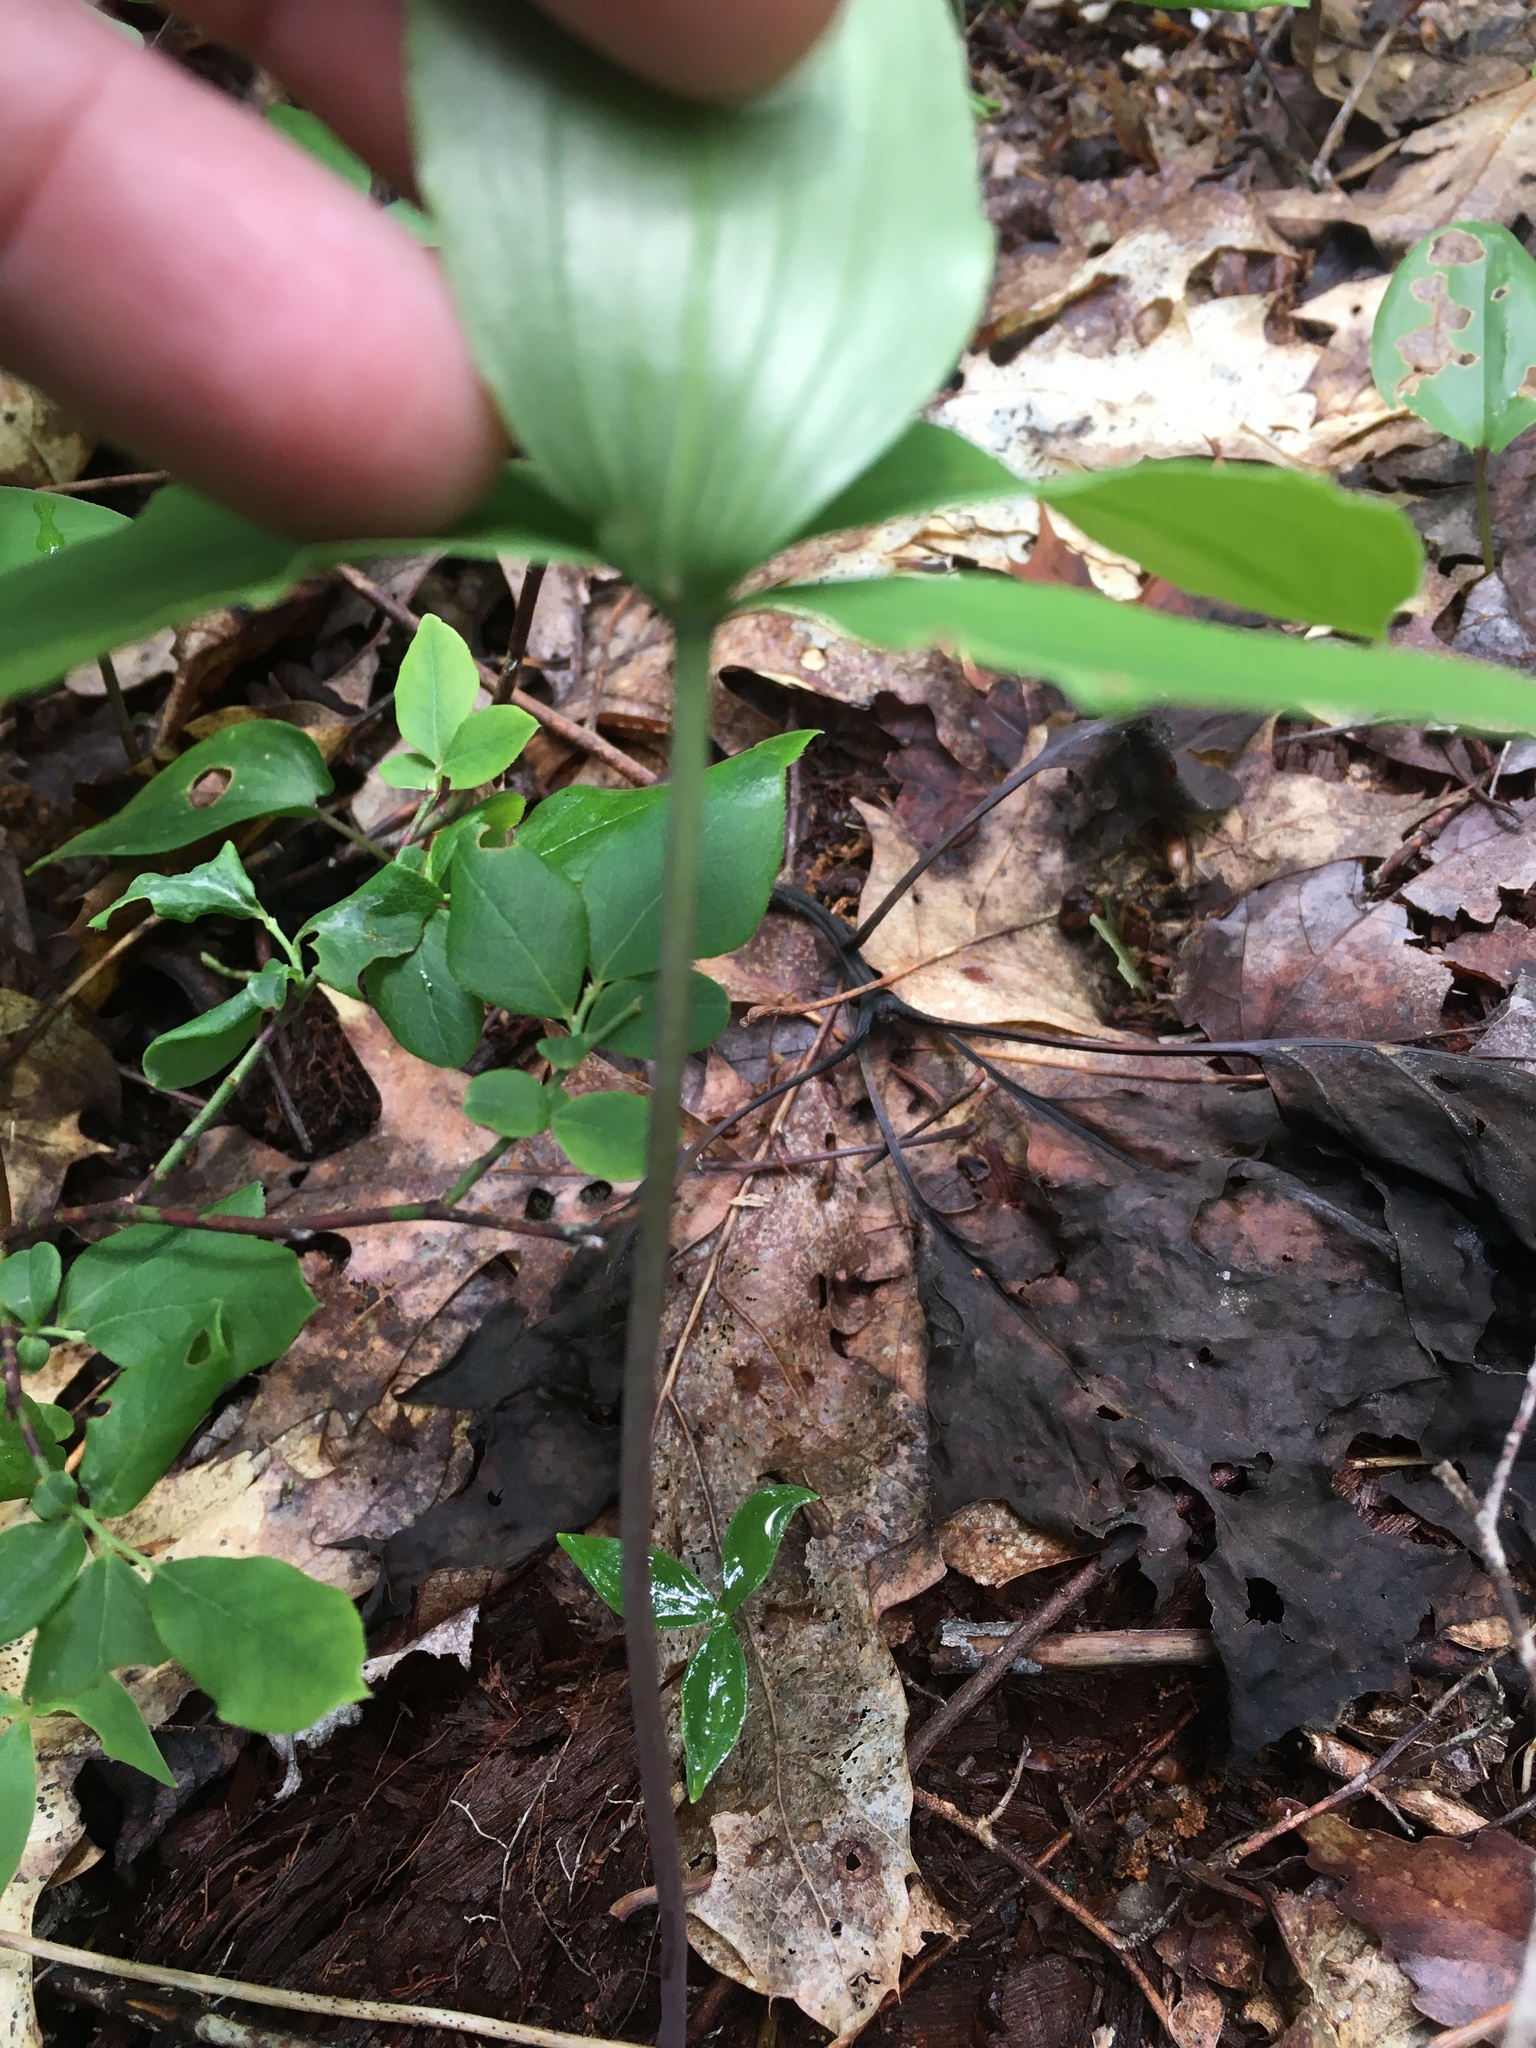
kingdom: Plantae
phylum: Tracheophyta
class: Liliopsida
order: Asparagales
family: Orchidaceae
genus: Isotria
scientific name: Isotria verticillata
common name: Large whorled pogonia
